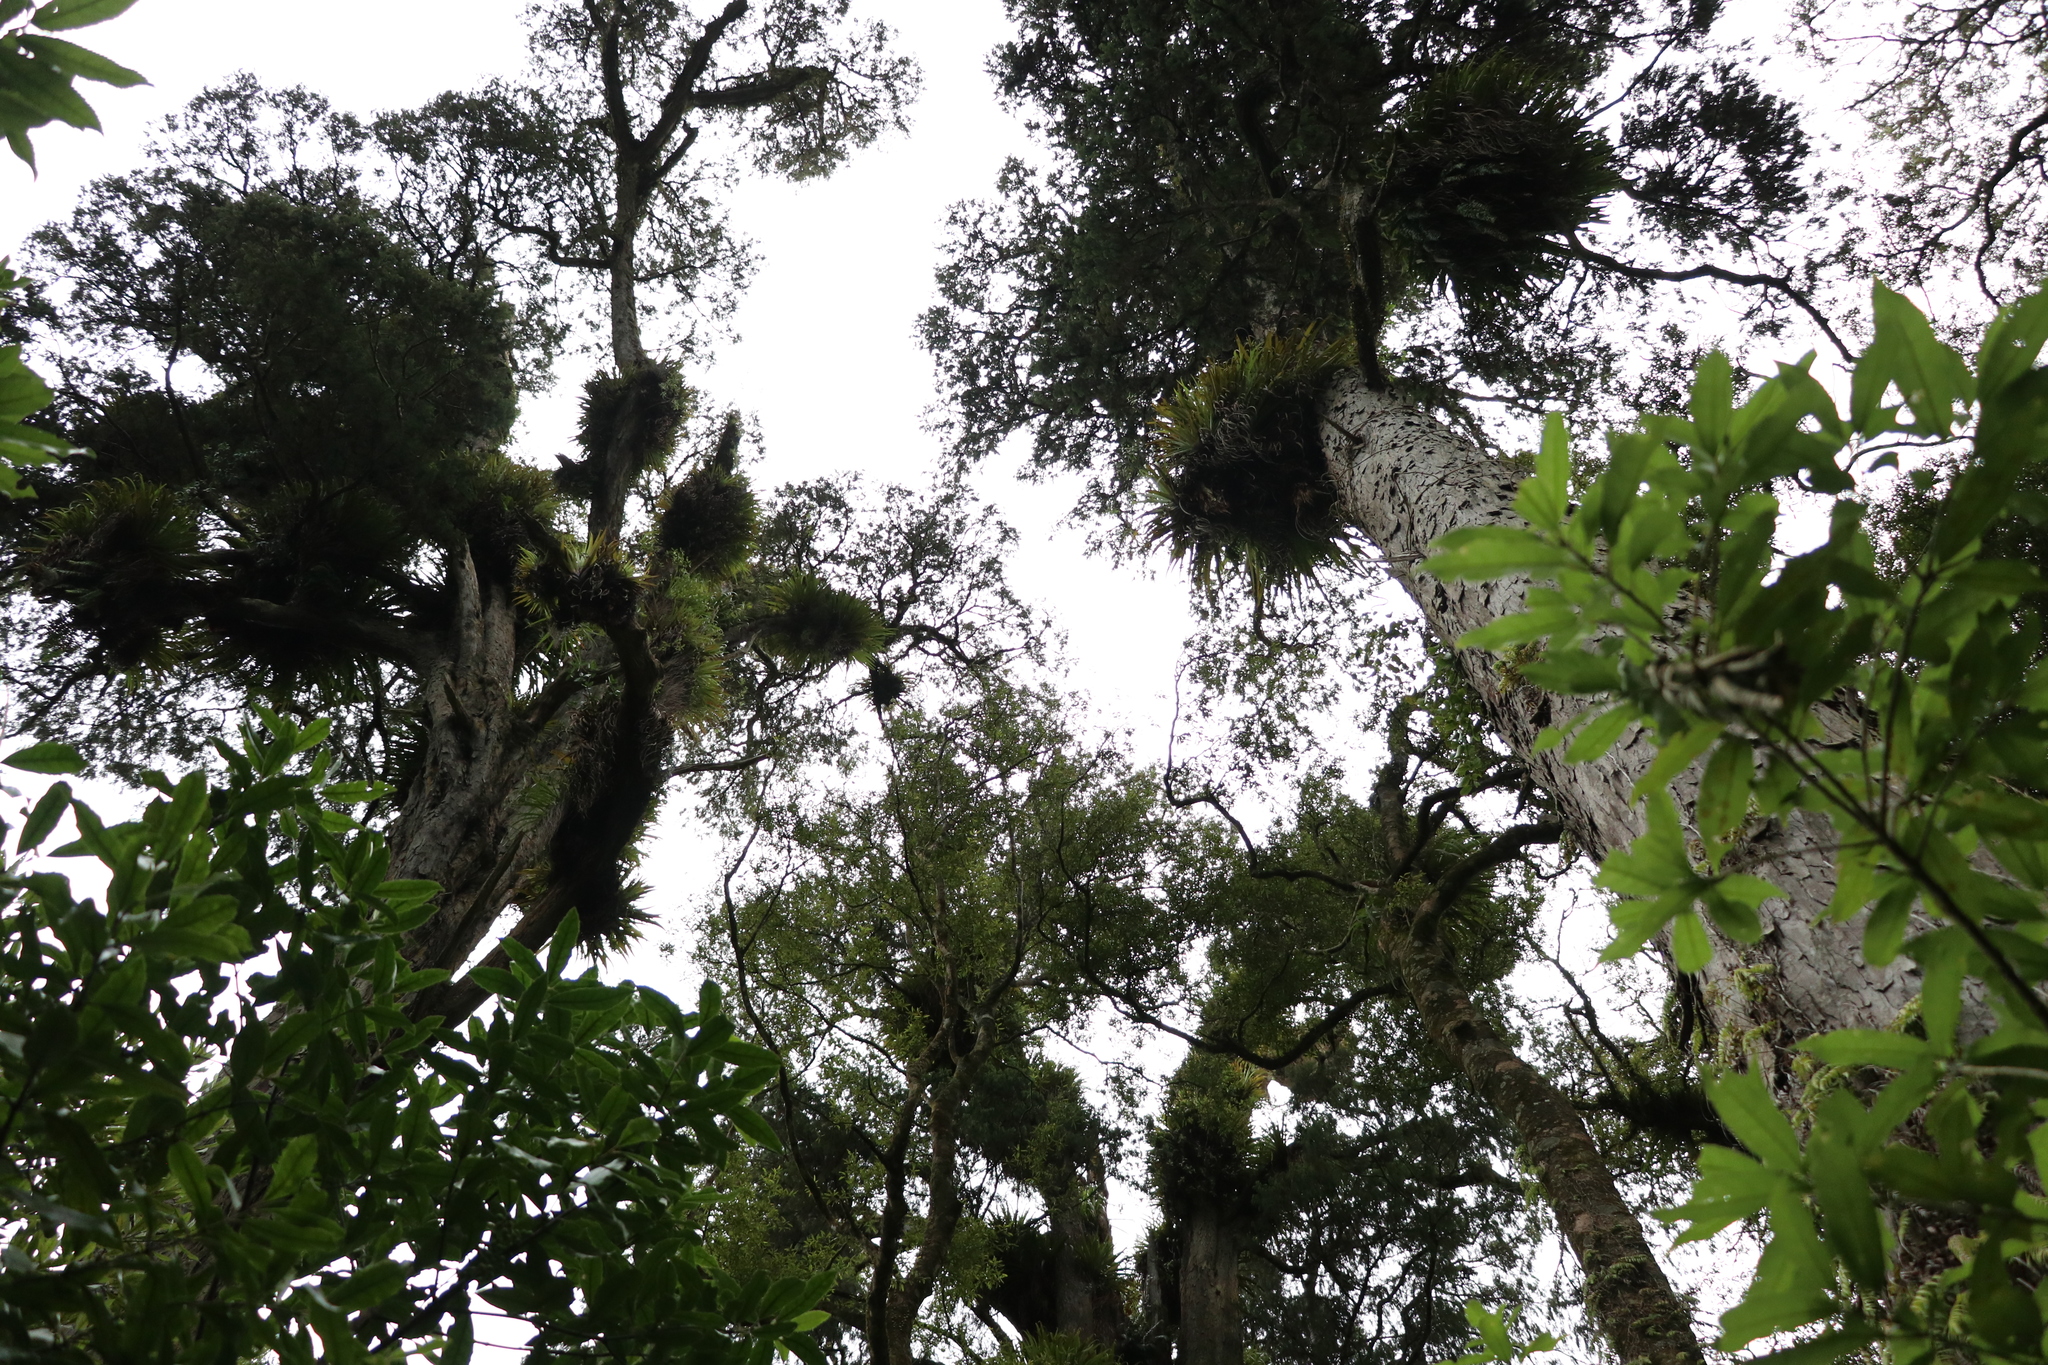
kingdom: Plantae
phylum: Tracheophyta
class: Pinopsida
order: Pinales
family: Podocarpaceae
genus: Dacrydium
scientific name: Dacrydium cupressinum
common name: Red pine
